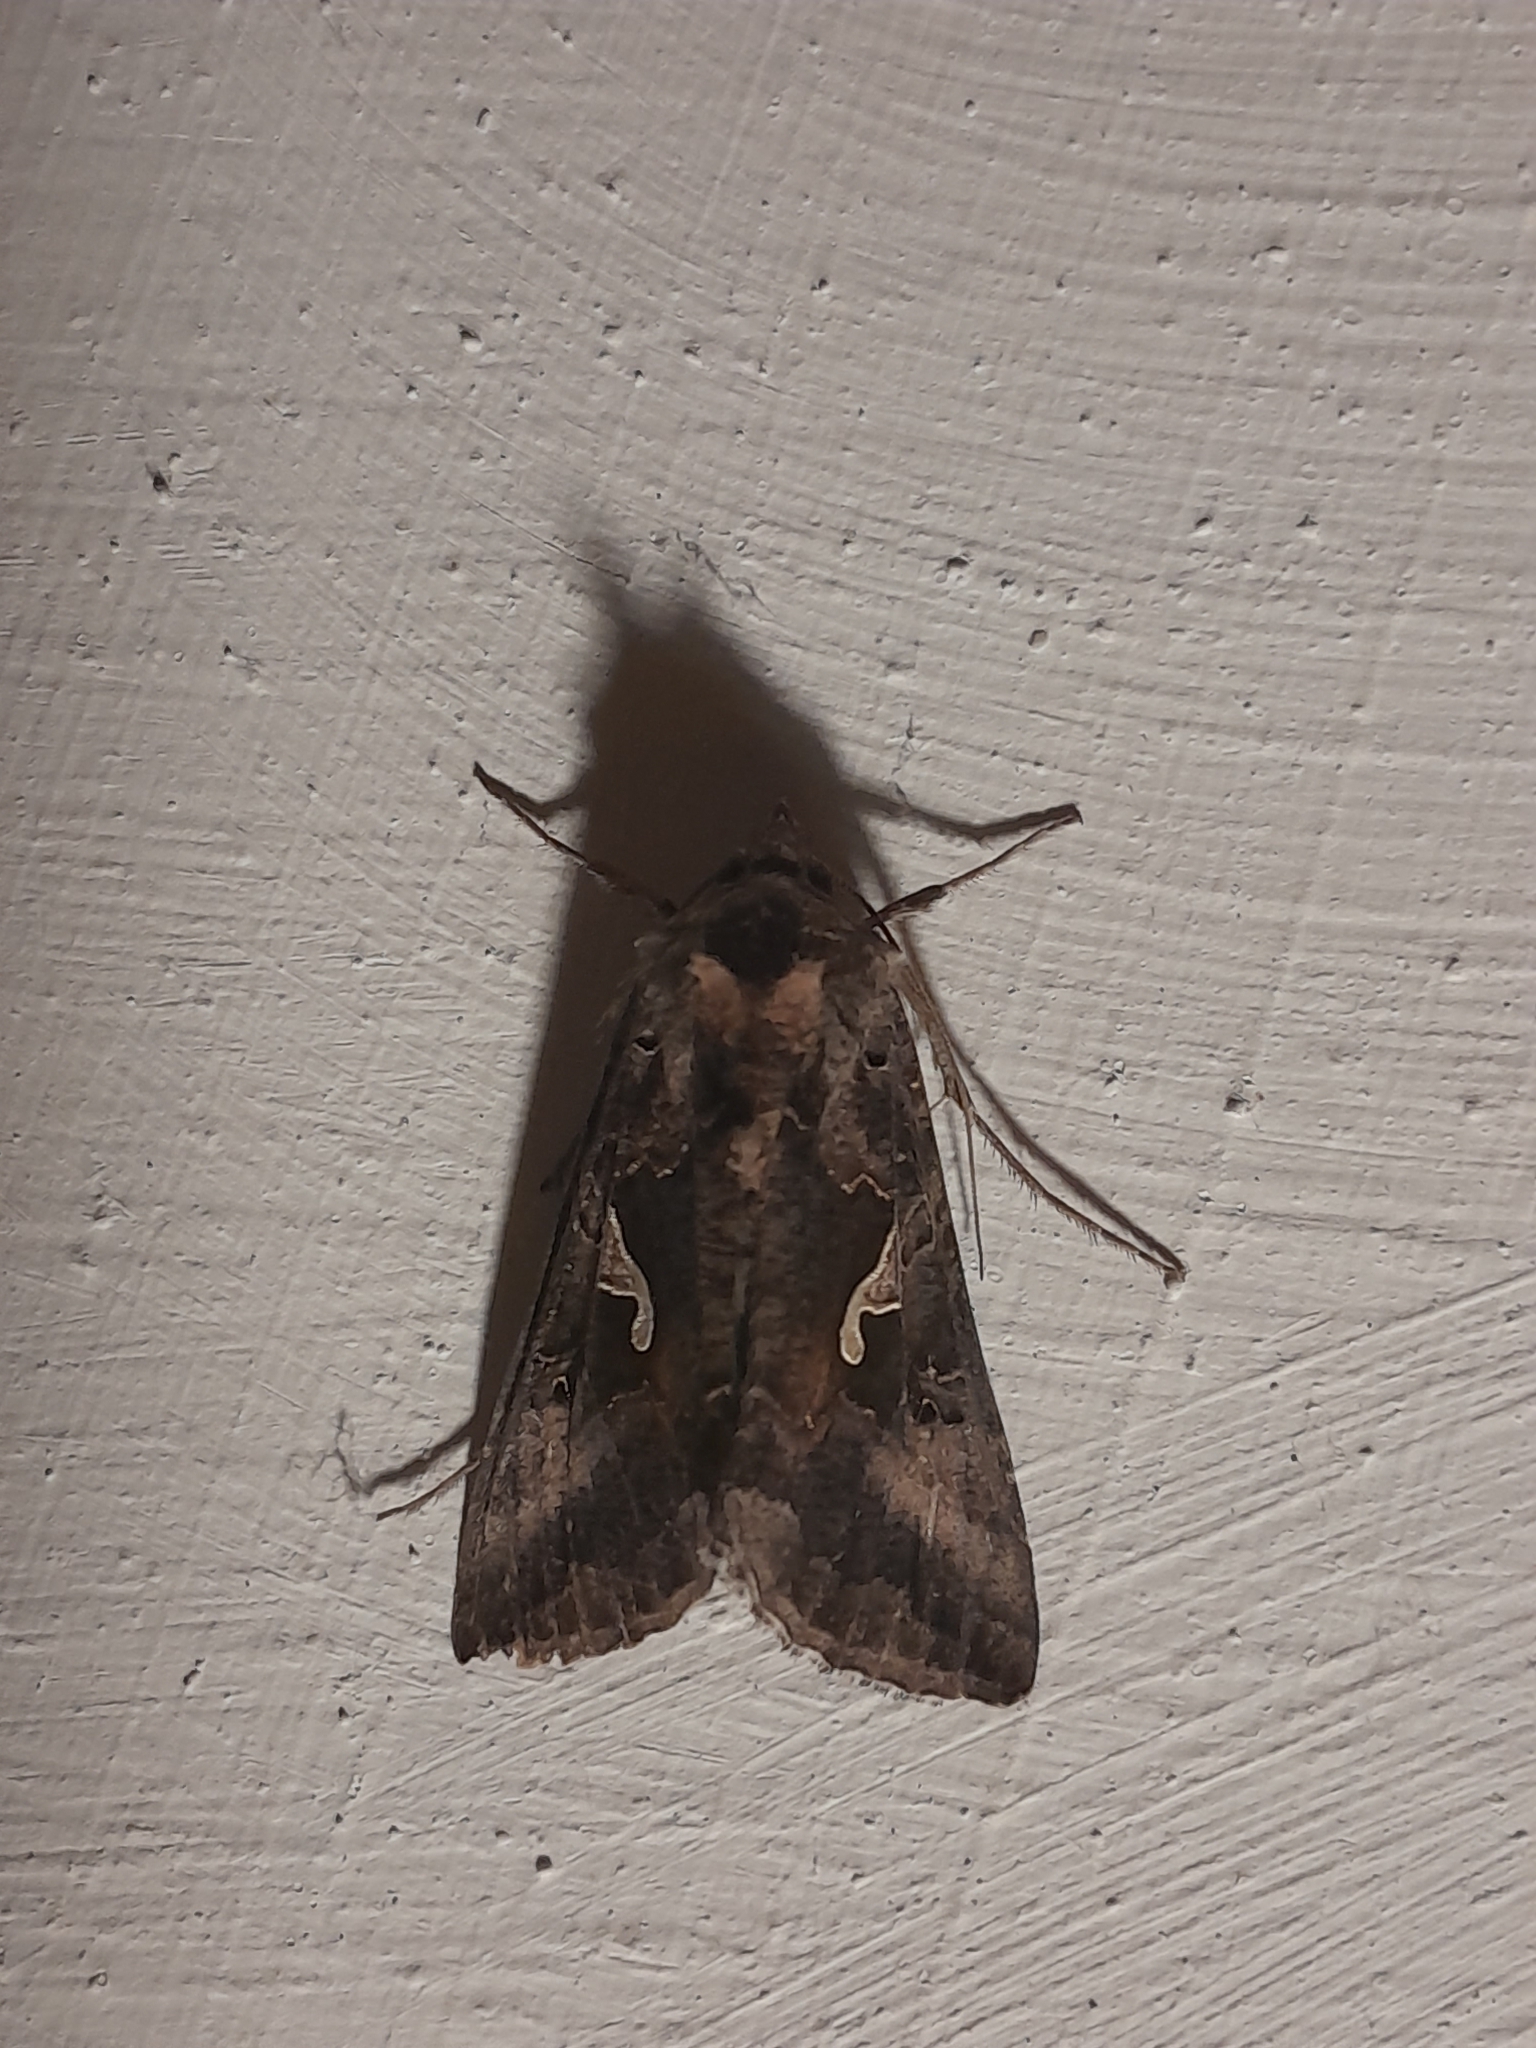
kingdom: Animalia
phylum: Arthropoda
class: Insecta
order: Lepidoptera
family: Noctuidae
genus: Autographa
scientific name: Autographa gamma
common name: Silver y
